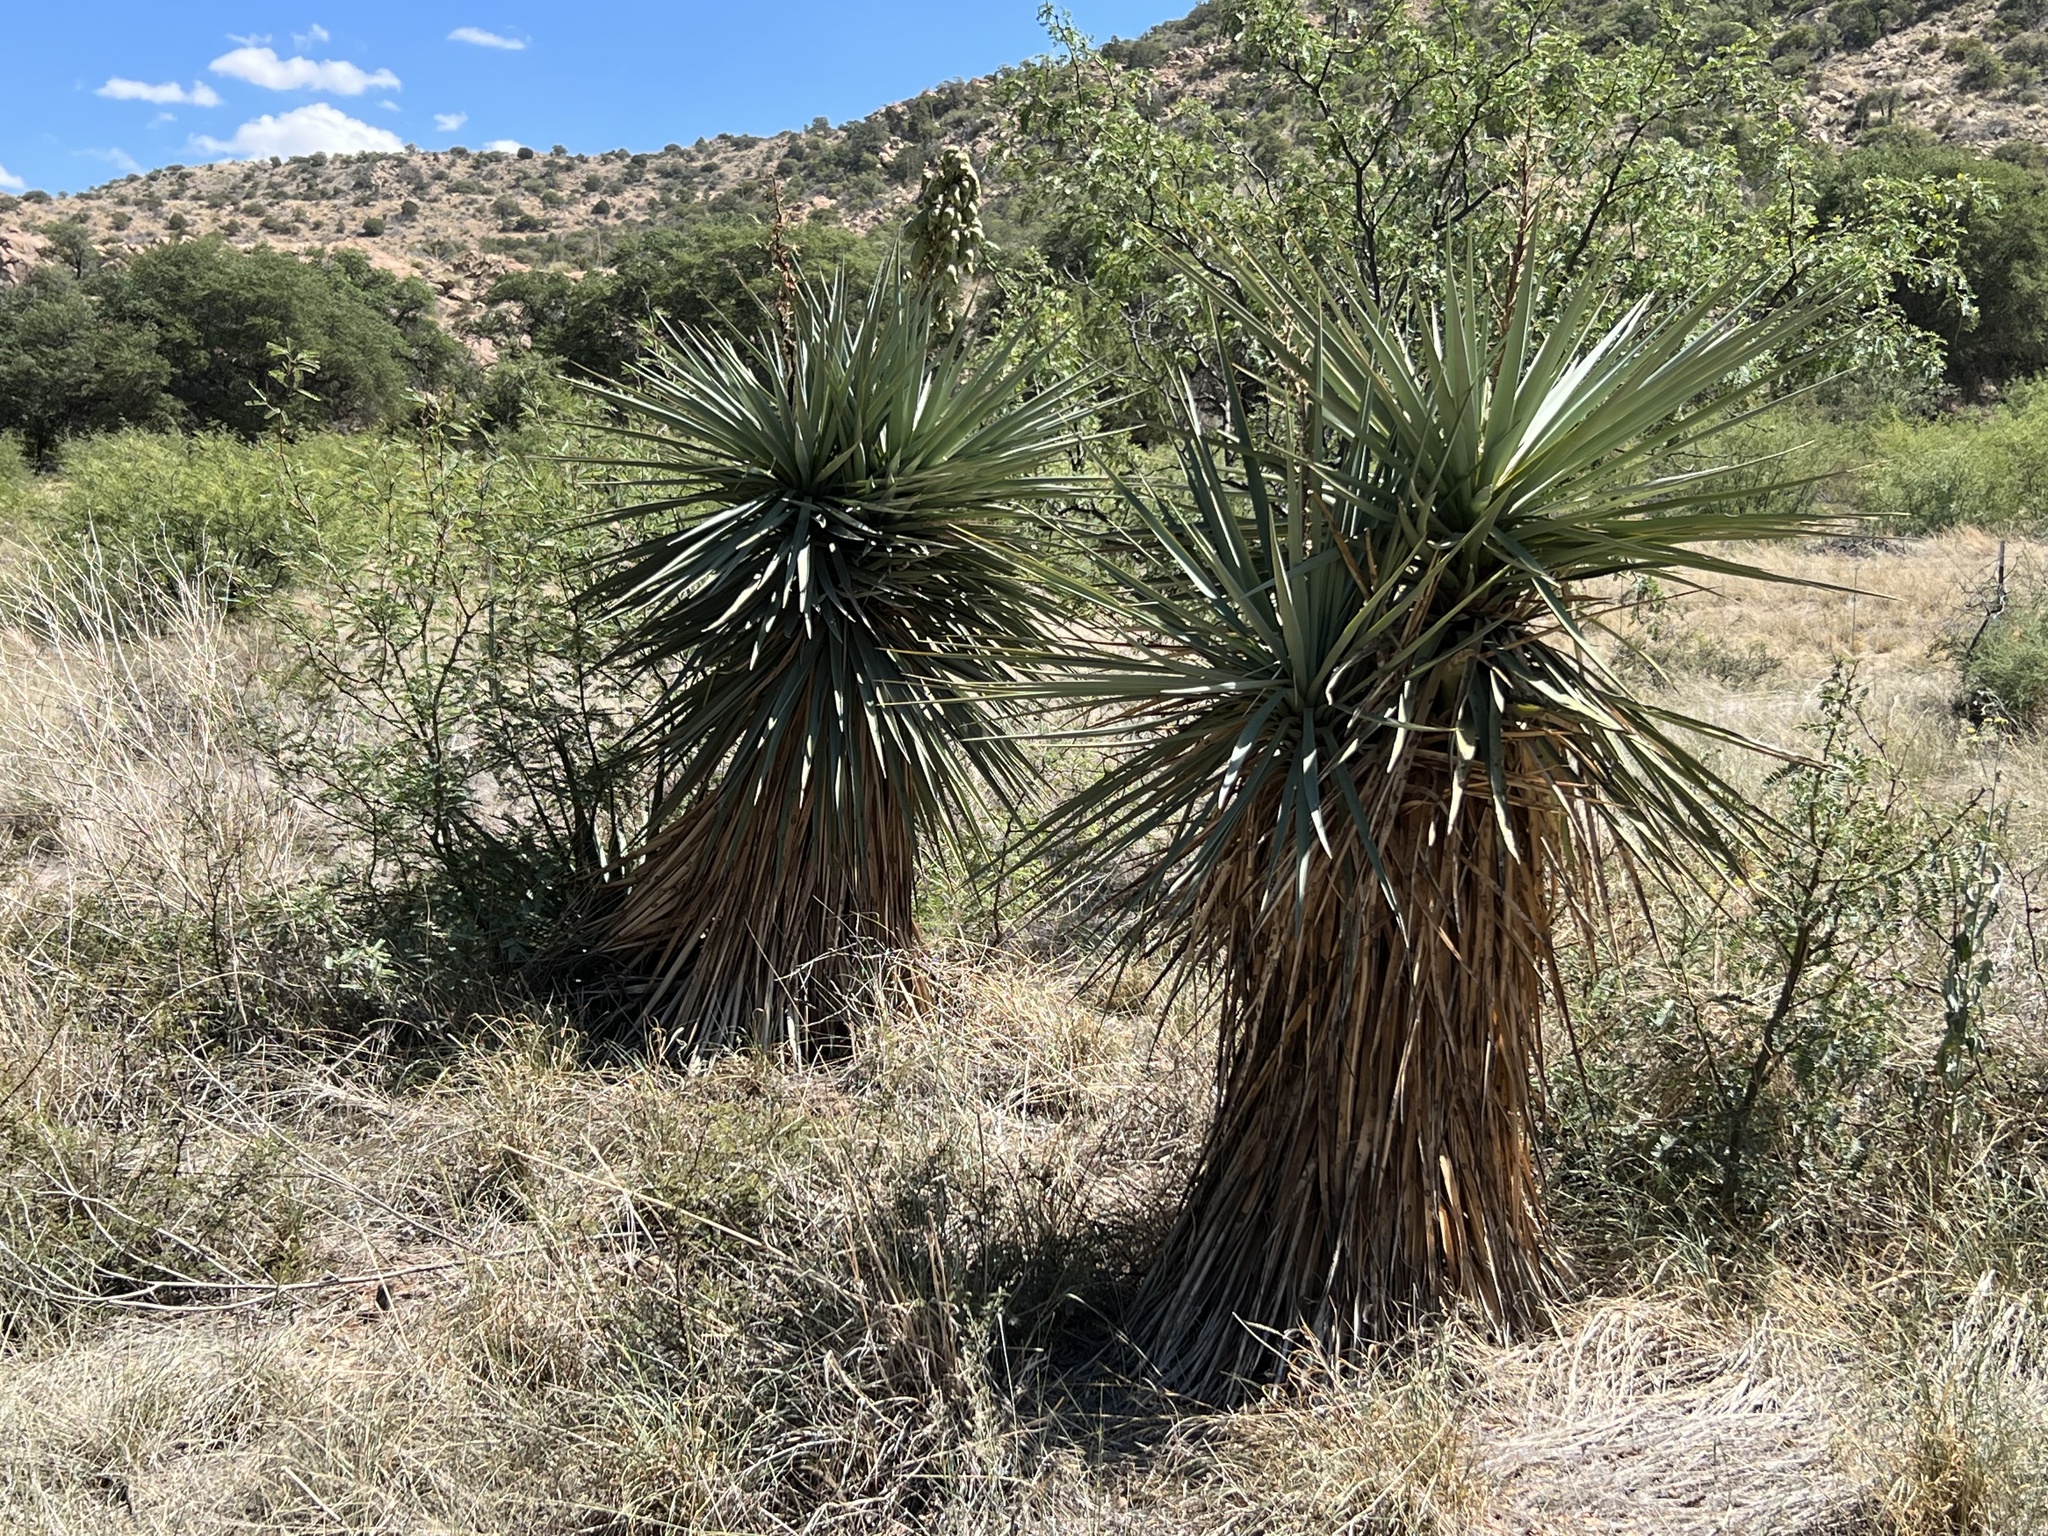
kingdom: Plantae
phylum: Tracheophyta
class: Liliopsida
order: Asparagales
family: Asparagaceae
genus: Yucca
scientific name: Yucca schottii
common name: Hoary yucca
